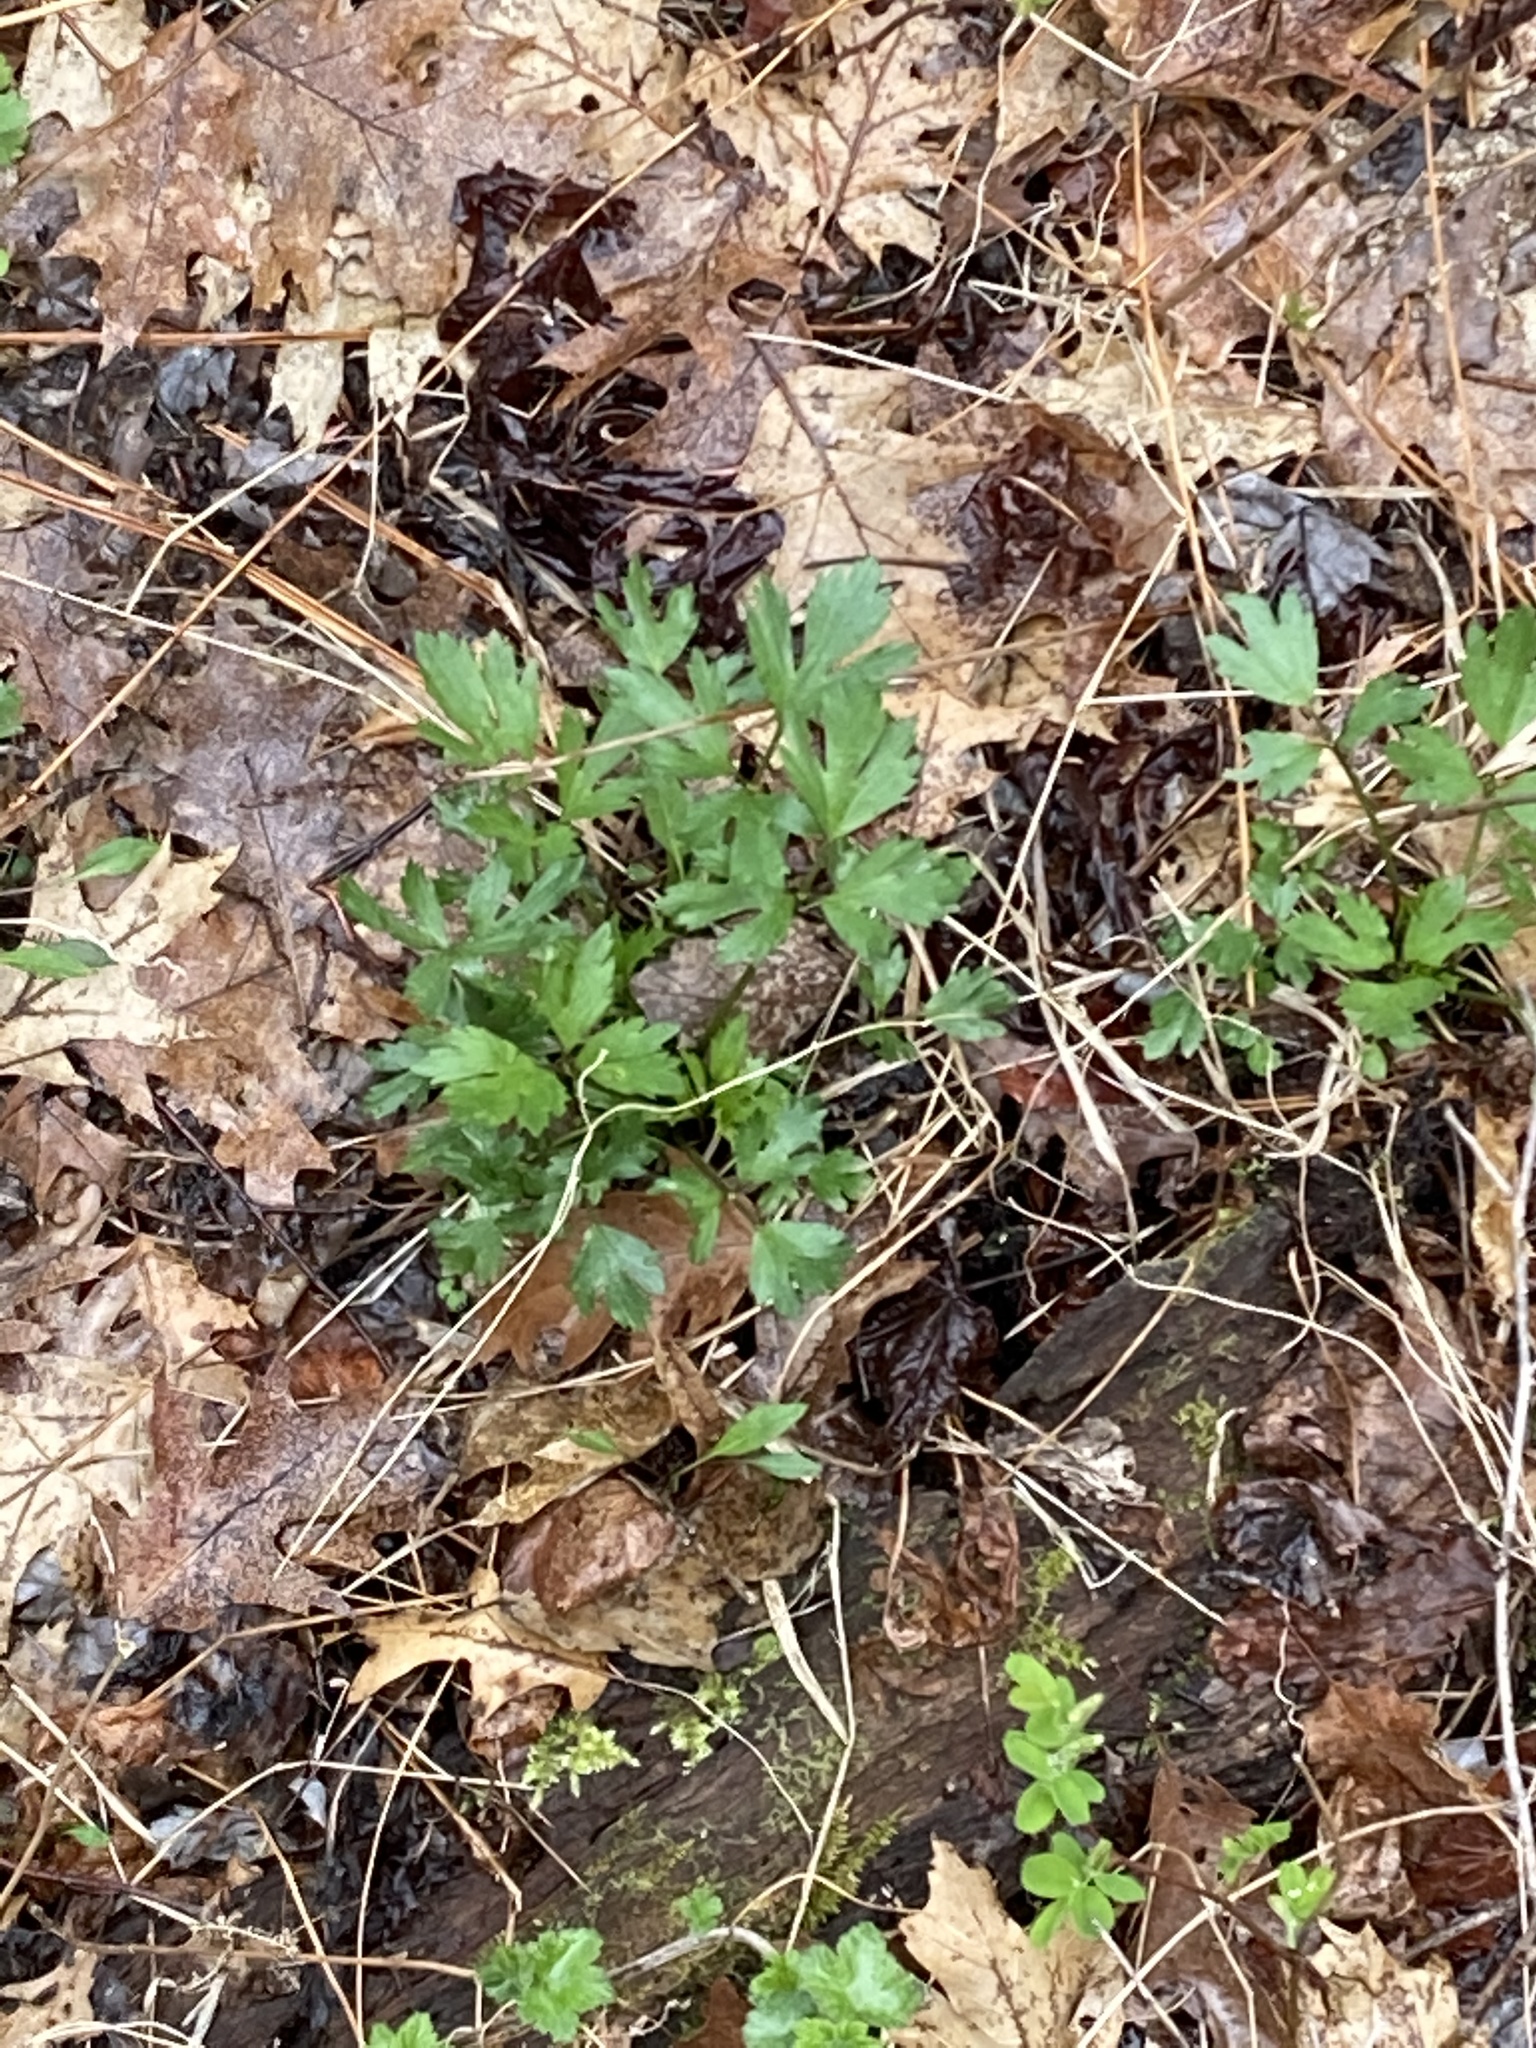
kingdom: Plantae
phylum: Tracheophyta
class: Magnoliopsida
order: Ranunculales
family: Ranunculaceae
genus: Ranunculus
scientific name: Ranunculus hispidus
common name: Bristly buttercup
